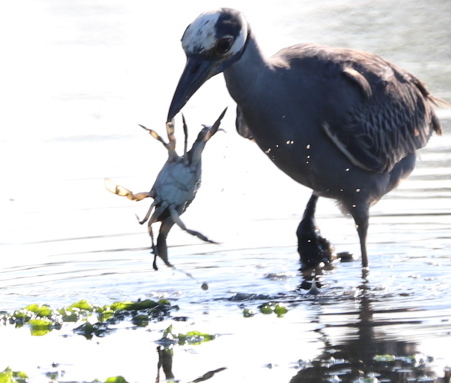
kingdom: Animalia
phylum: Arthropoda
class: Malacostraca
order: Decapoda
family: Portunidae
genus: Callinectes
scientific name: Callinectes sapidus
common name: Blue crab
